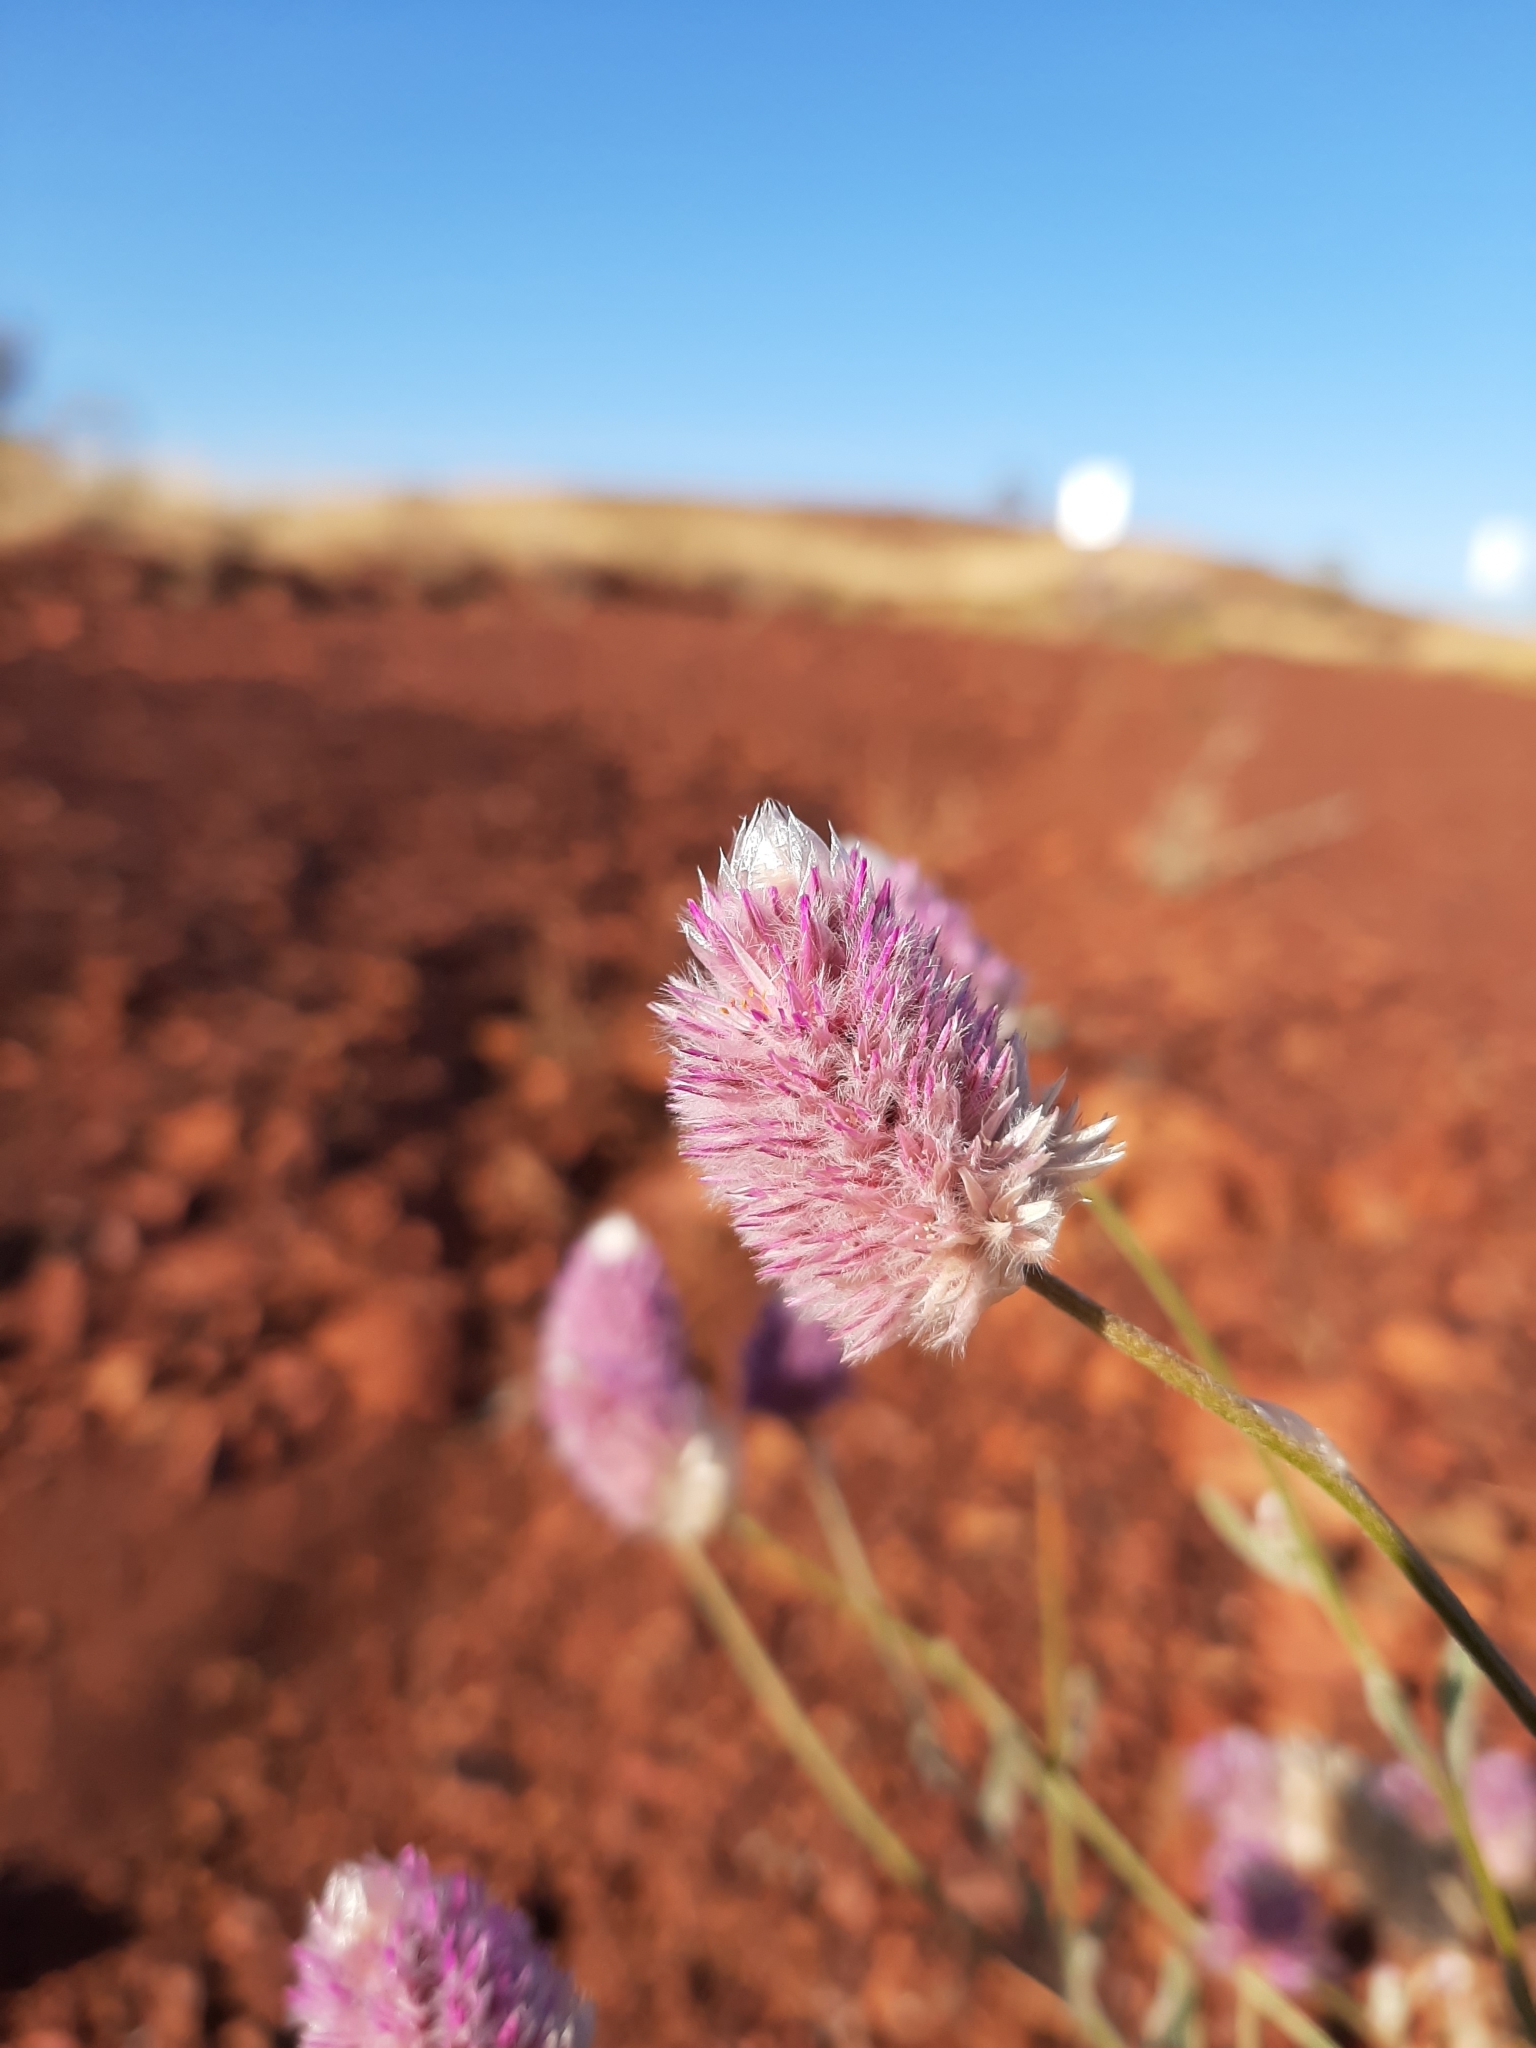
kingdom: Plantae
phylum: Tracheophyta
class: Magnoliopsida
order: Caryophyllales
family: Amaranthaceae
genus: Ptilotus
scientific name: Ptilotus helipteroides
